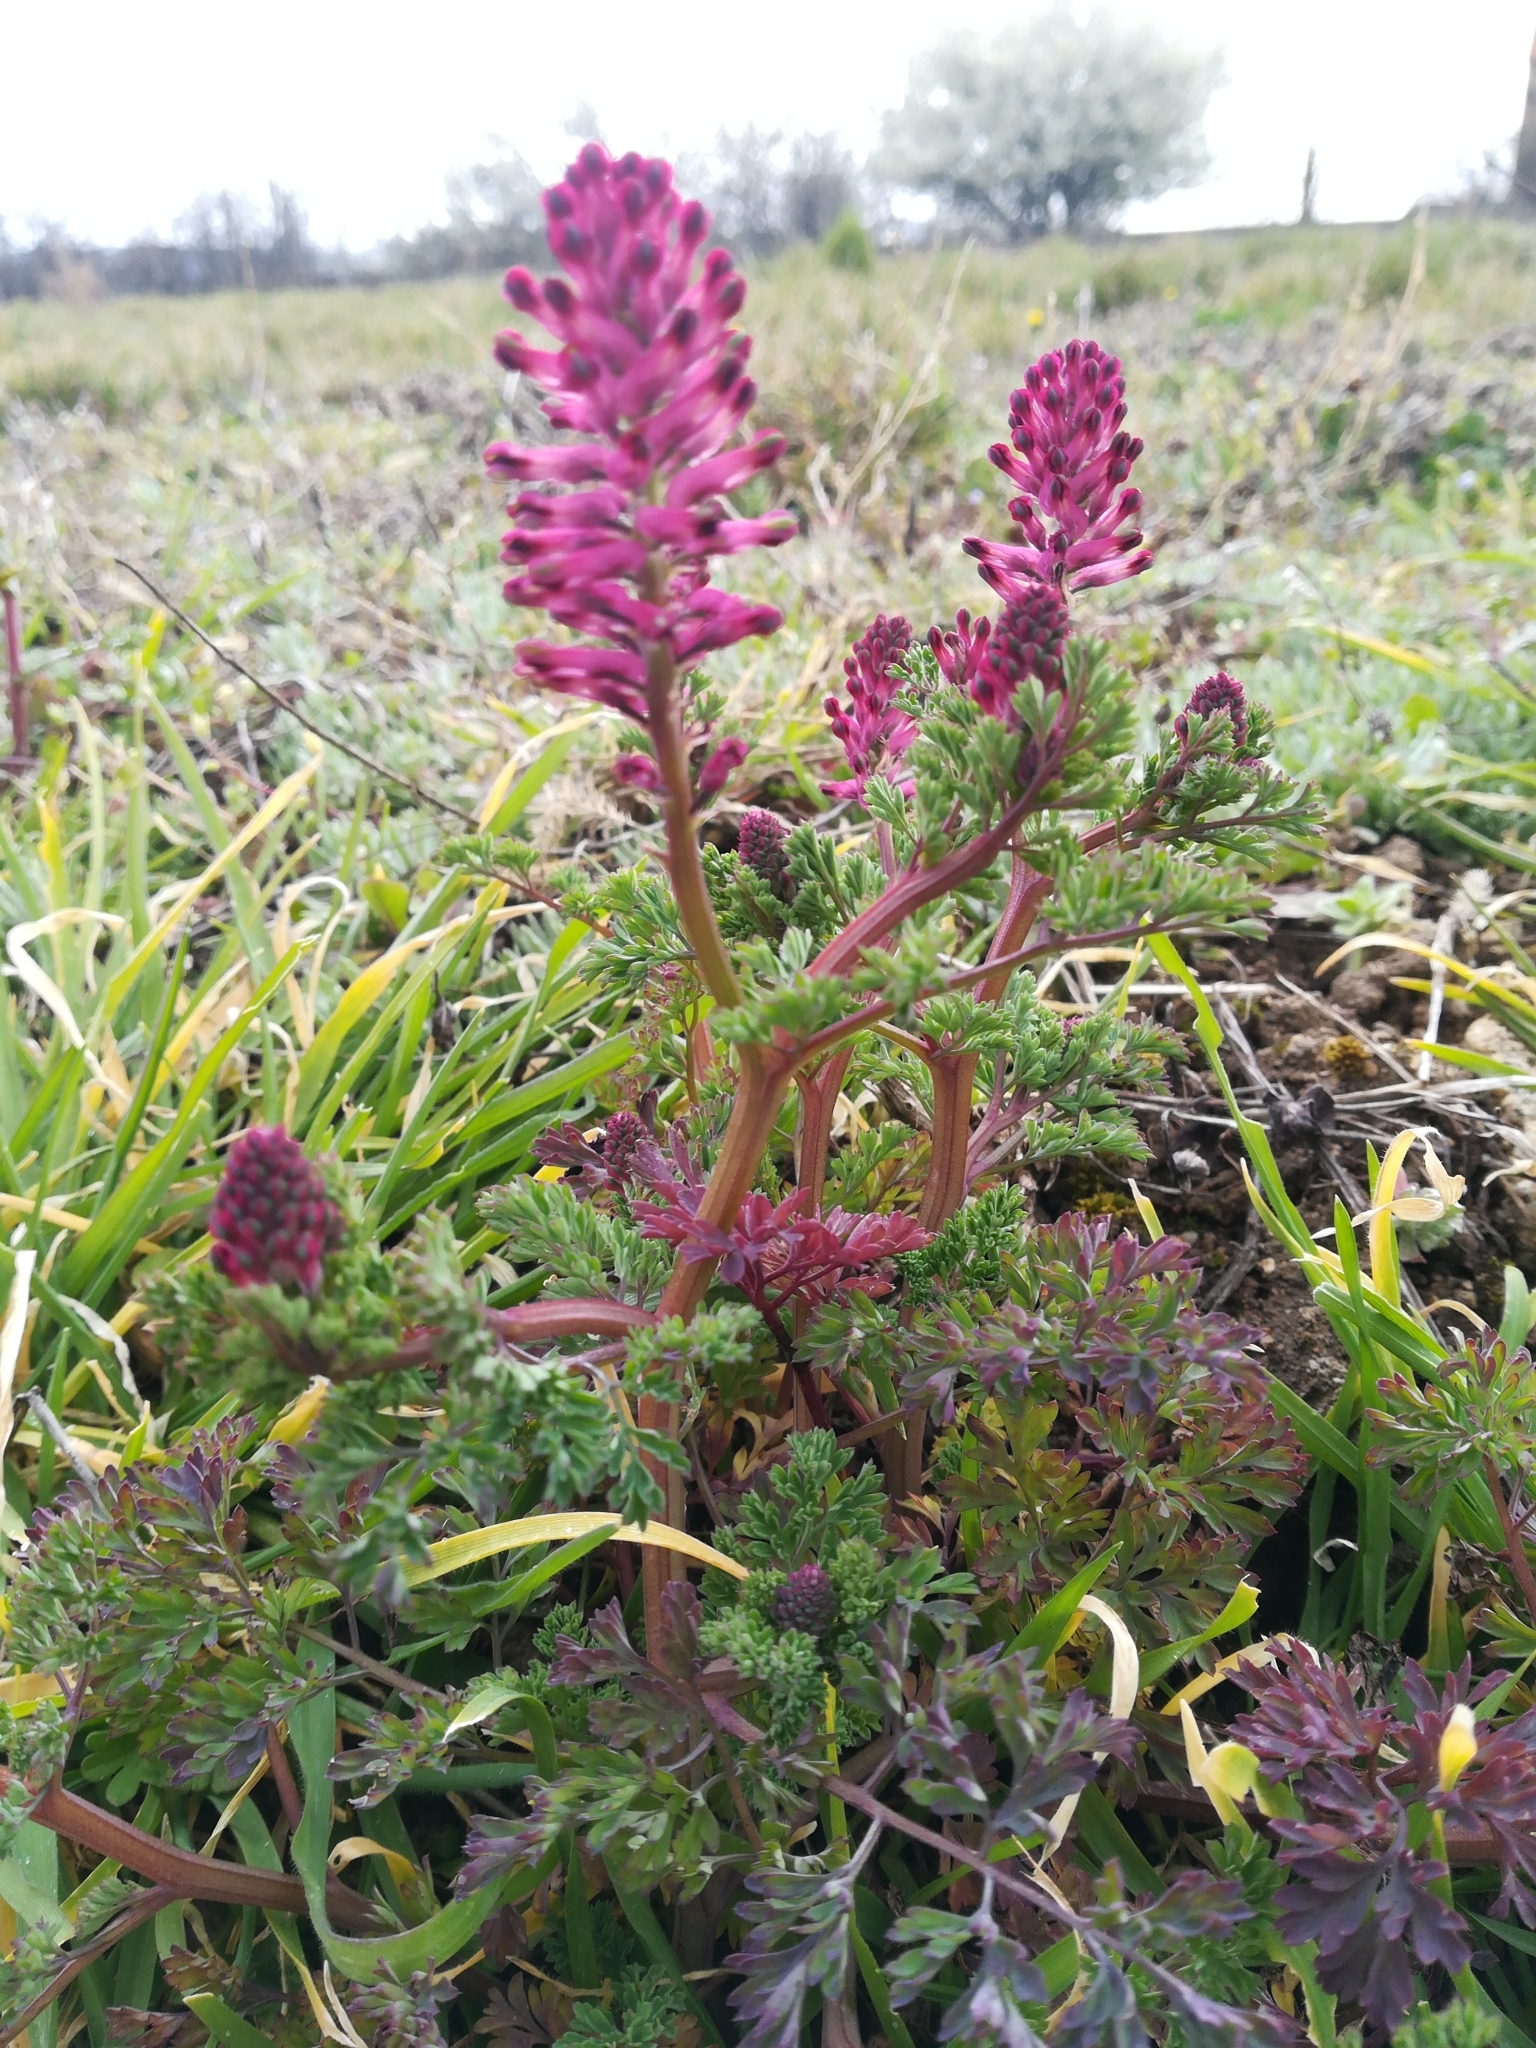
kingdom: Plantae
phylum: Tracheophyta
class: Magnoliopsida
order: Ranunculales
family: Papaveraceae
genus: Fumaria
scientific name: Fumaria officinalis
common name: Common fumitory
